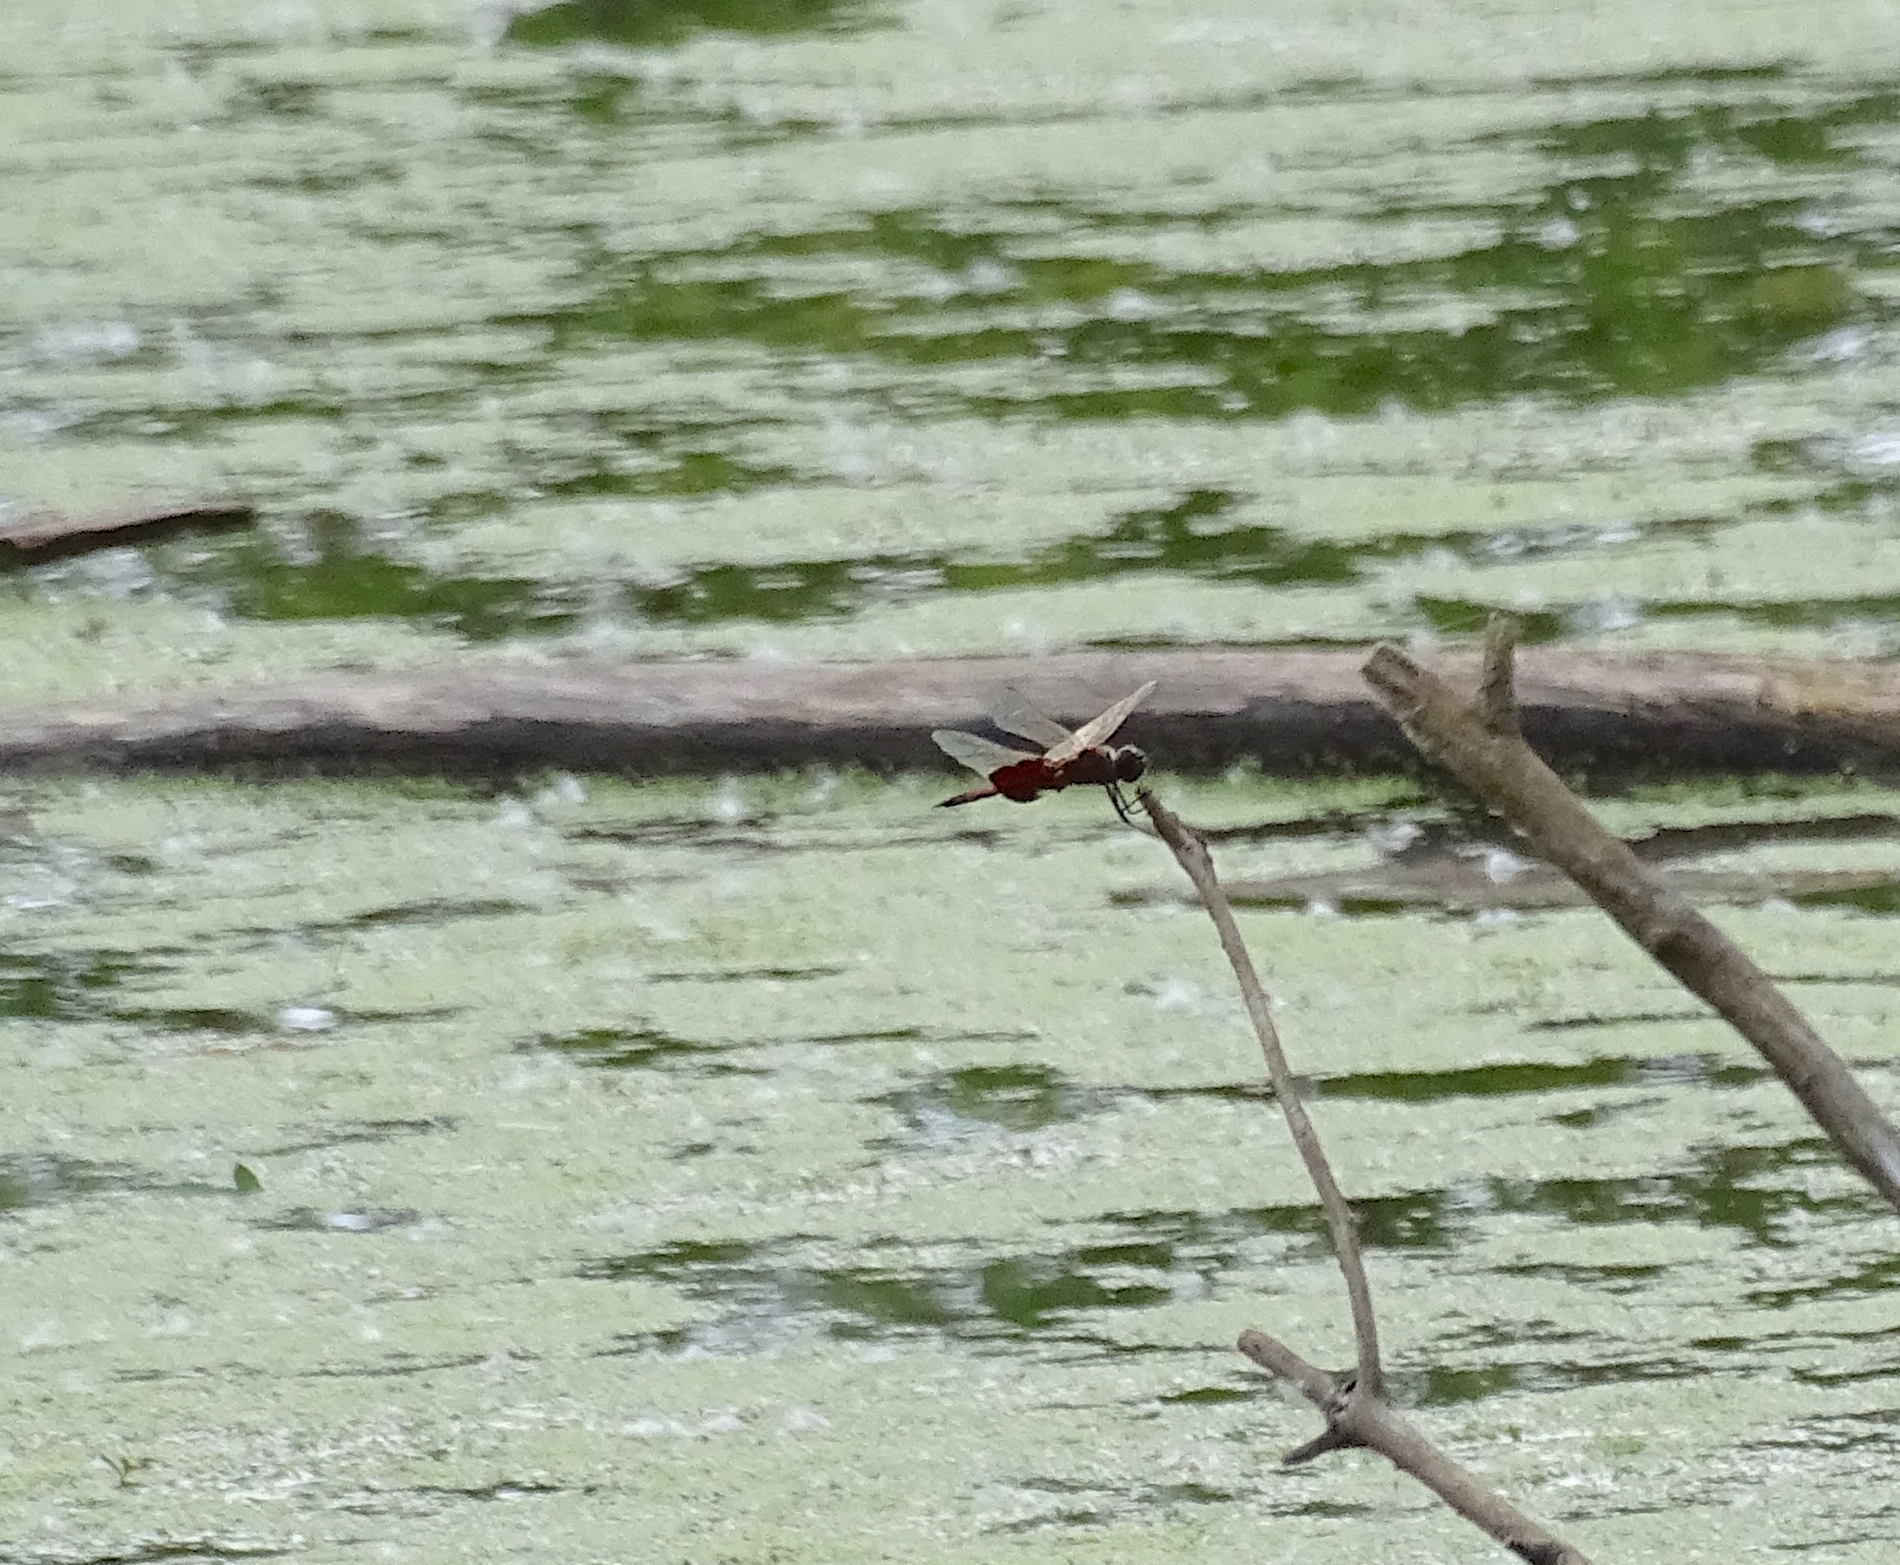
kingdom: Animalia
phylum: Arthropoda
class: Insecta
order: Odonata
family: Libellulidae
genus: Tramea
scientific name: Tramea carolina
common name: Carolina saddlebags
